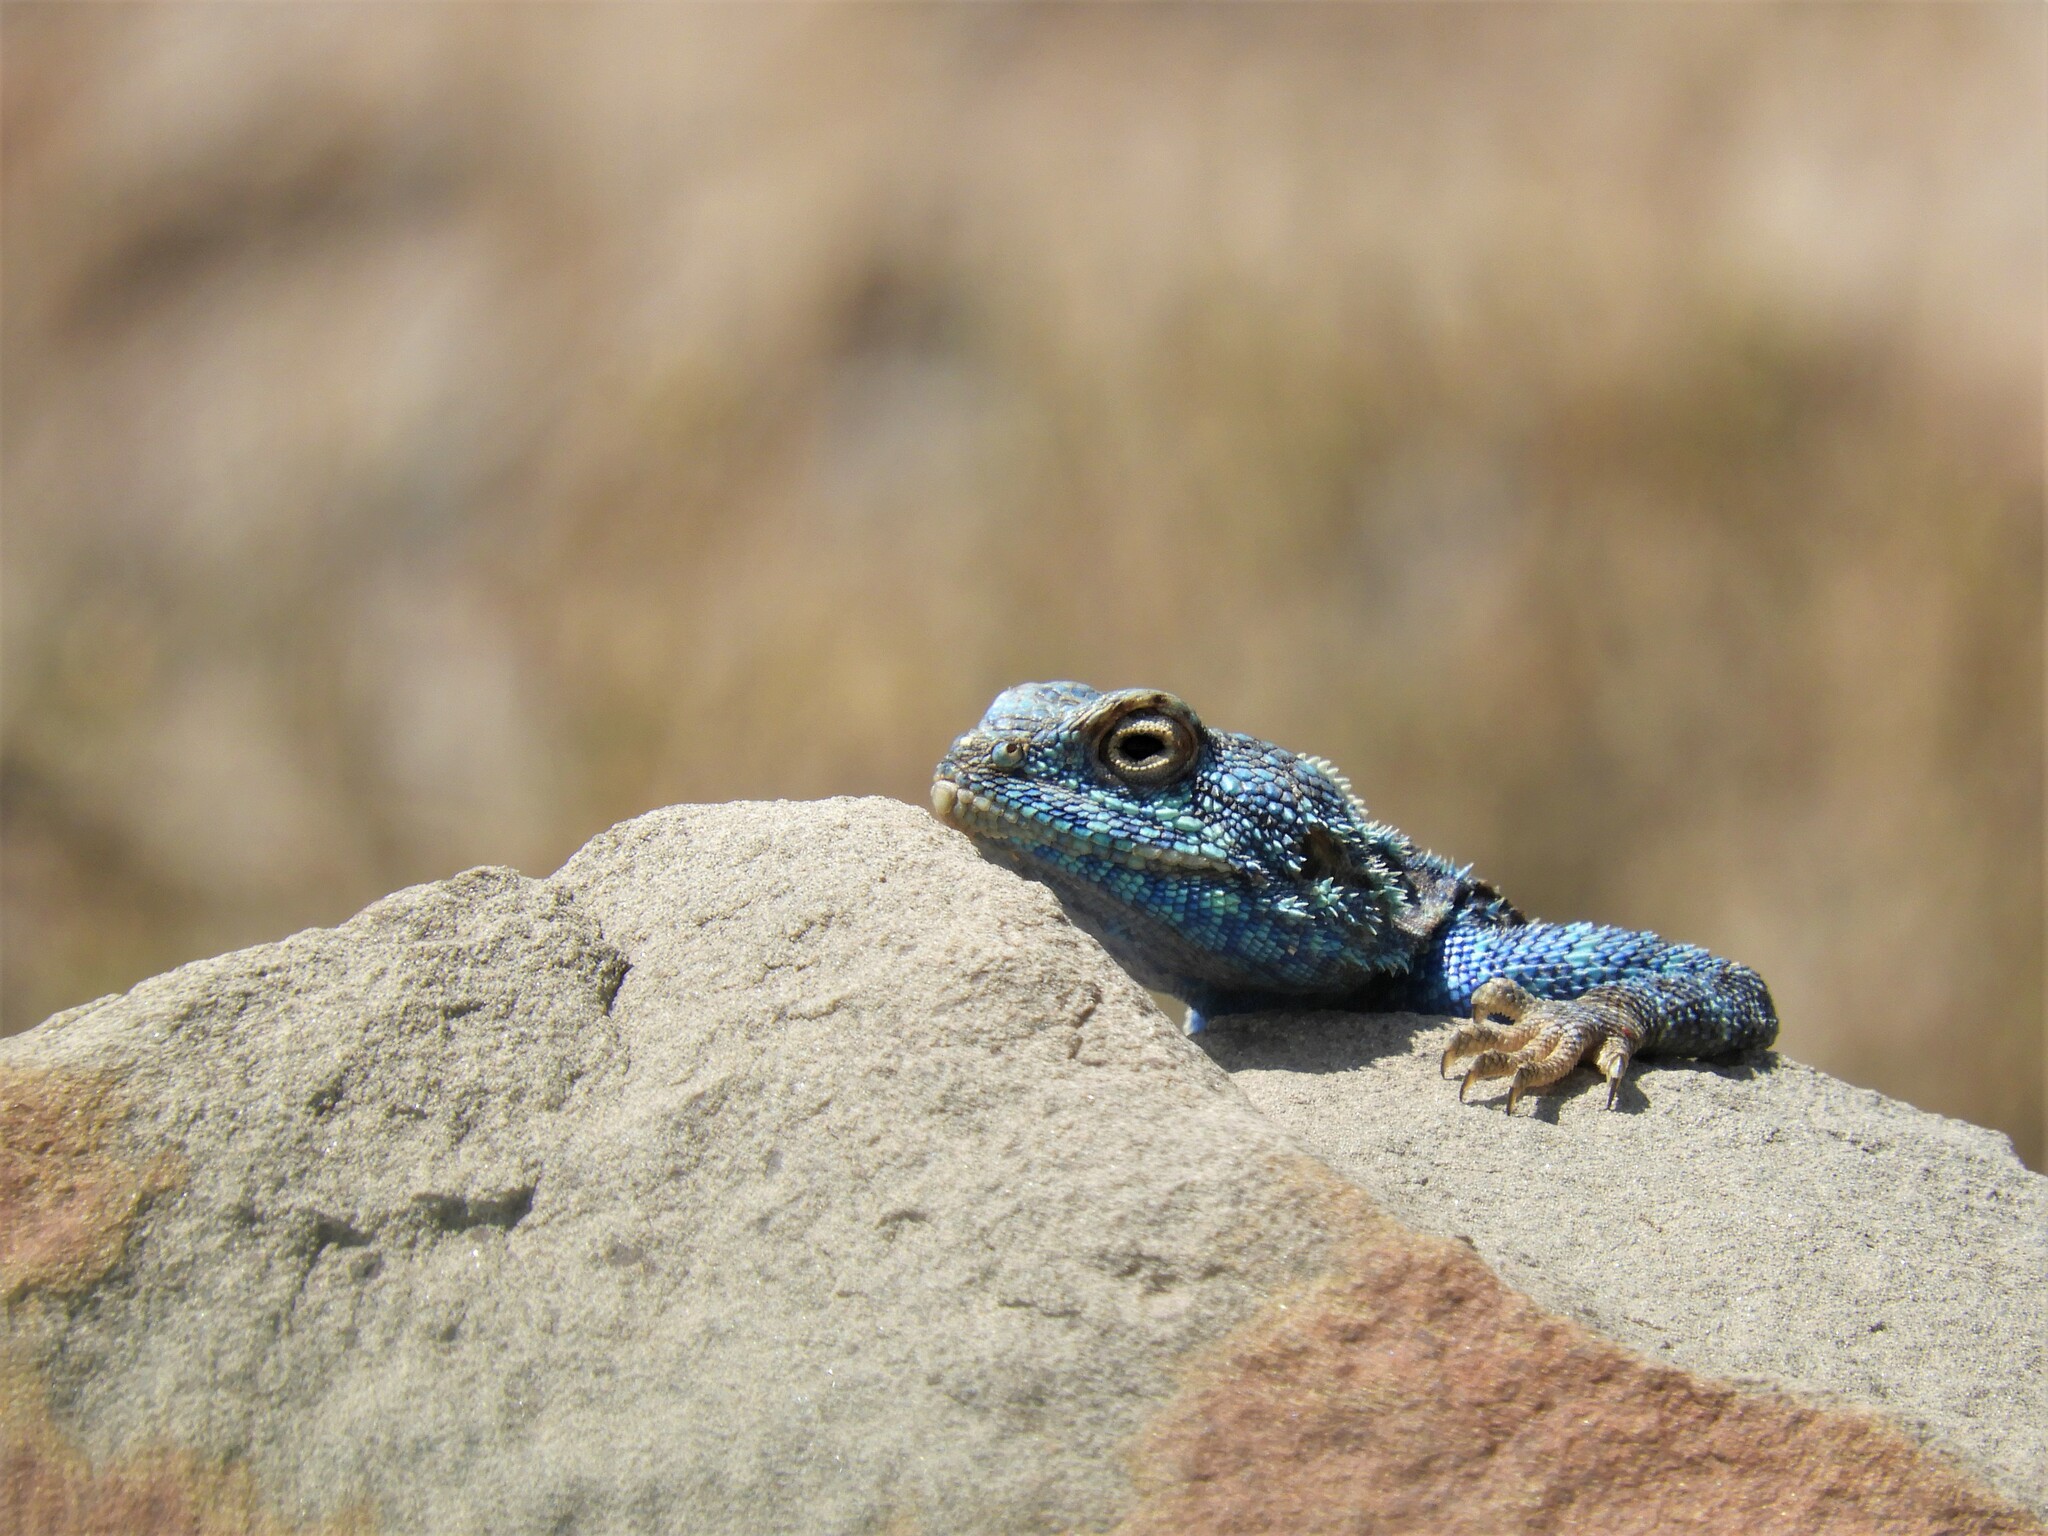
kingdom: Animalia
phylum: Chordata
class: Squamata
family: Agamidae
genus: Agama
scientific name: Agama atra
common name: Southern african rock agama
